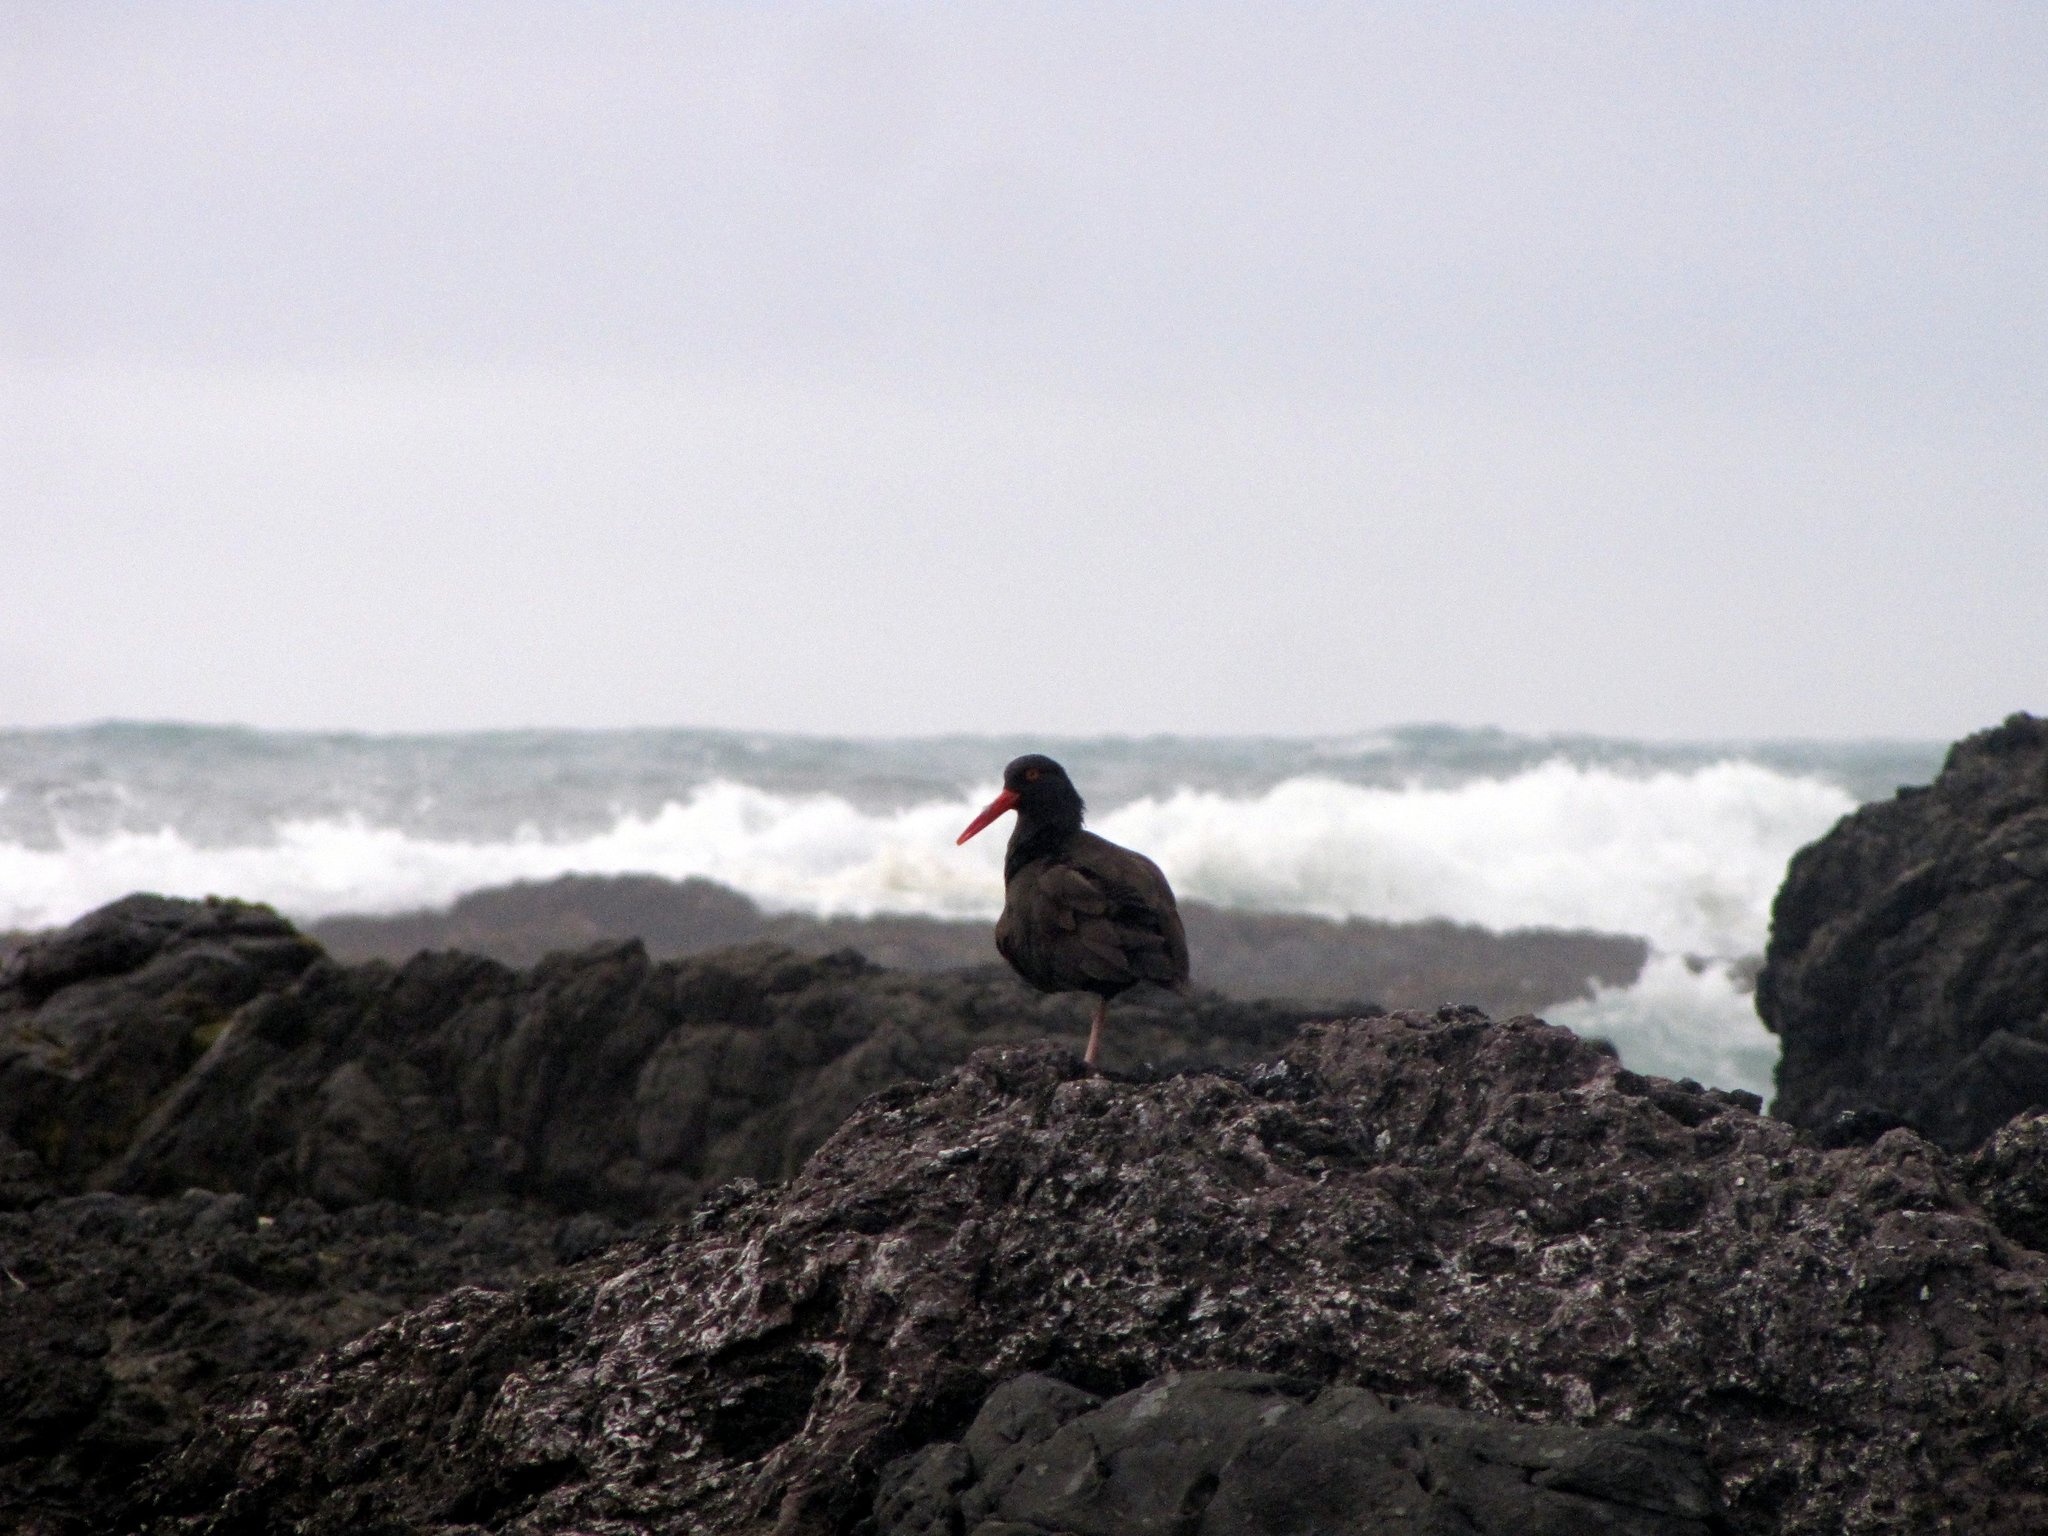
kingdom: Animalia
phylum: Chordata
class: Aves
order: Charadriiformes
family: Haematopodidae
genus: Haematopus
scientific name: Haematopus bachmani
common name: Black oystercatcher
